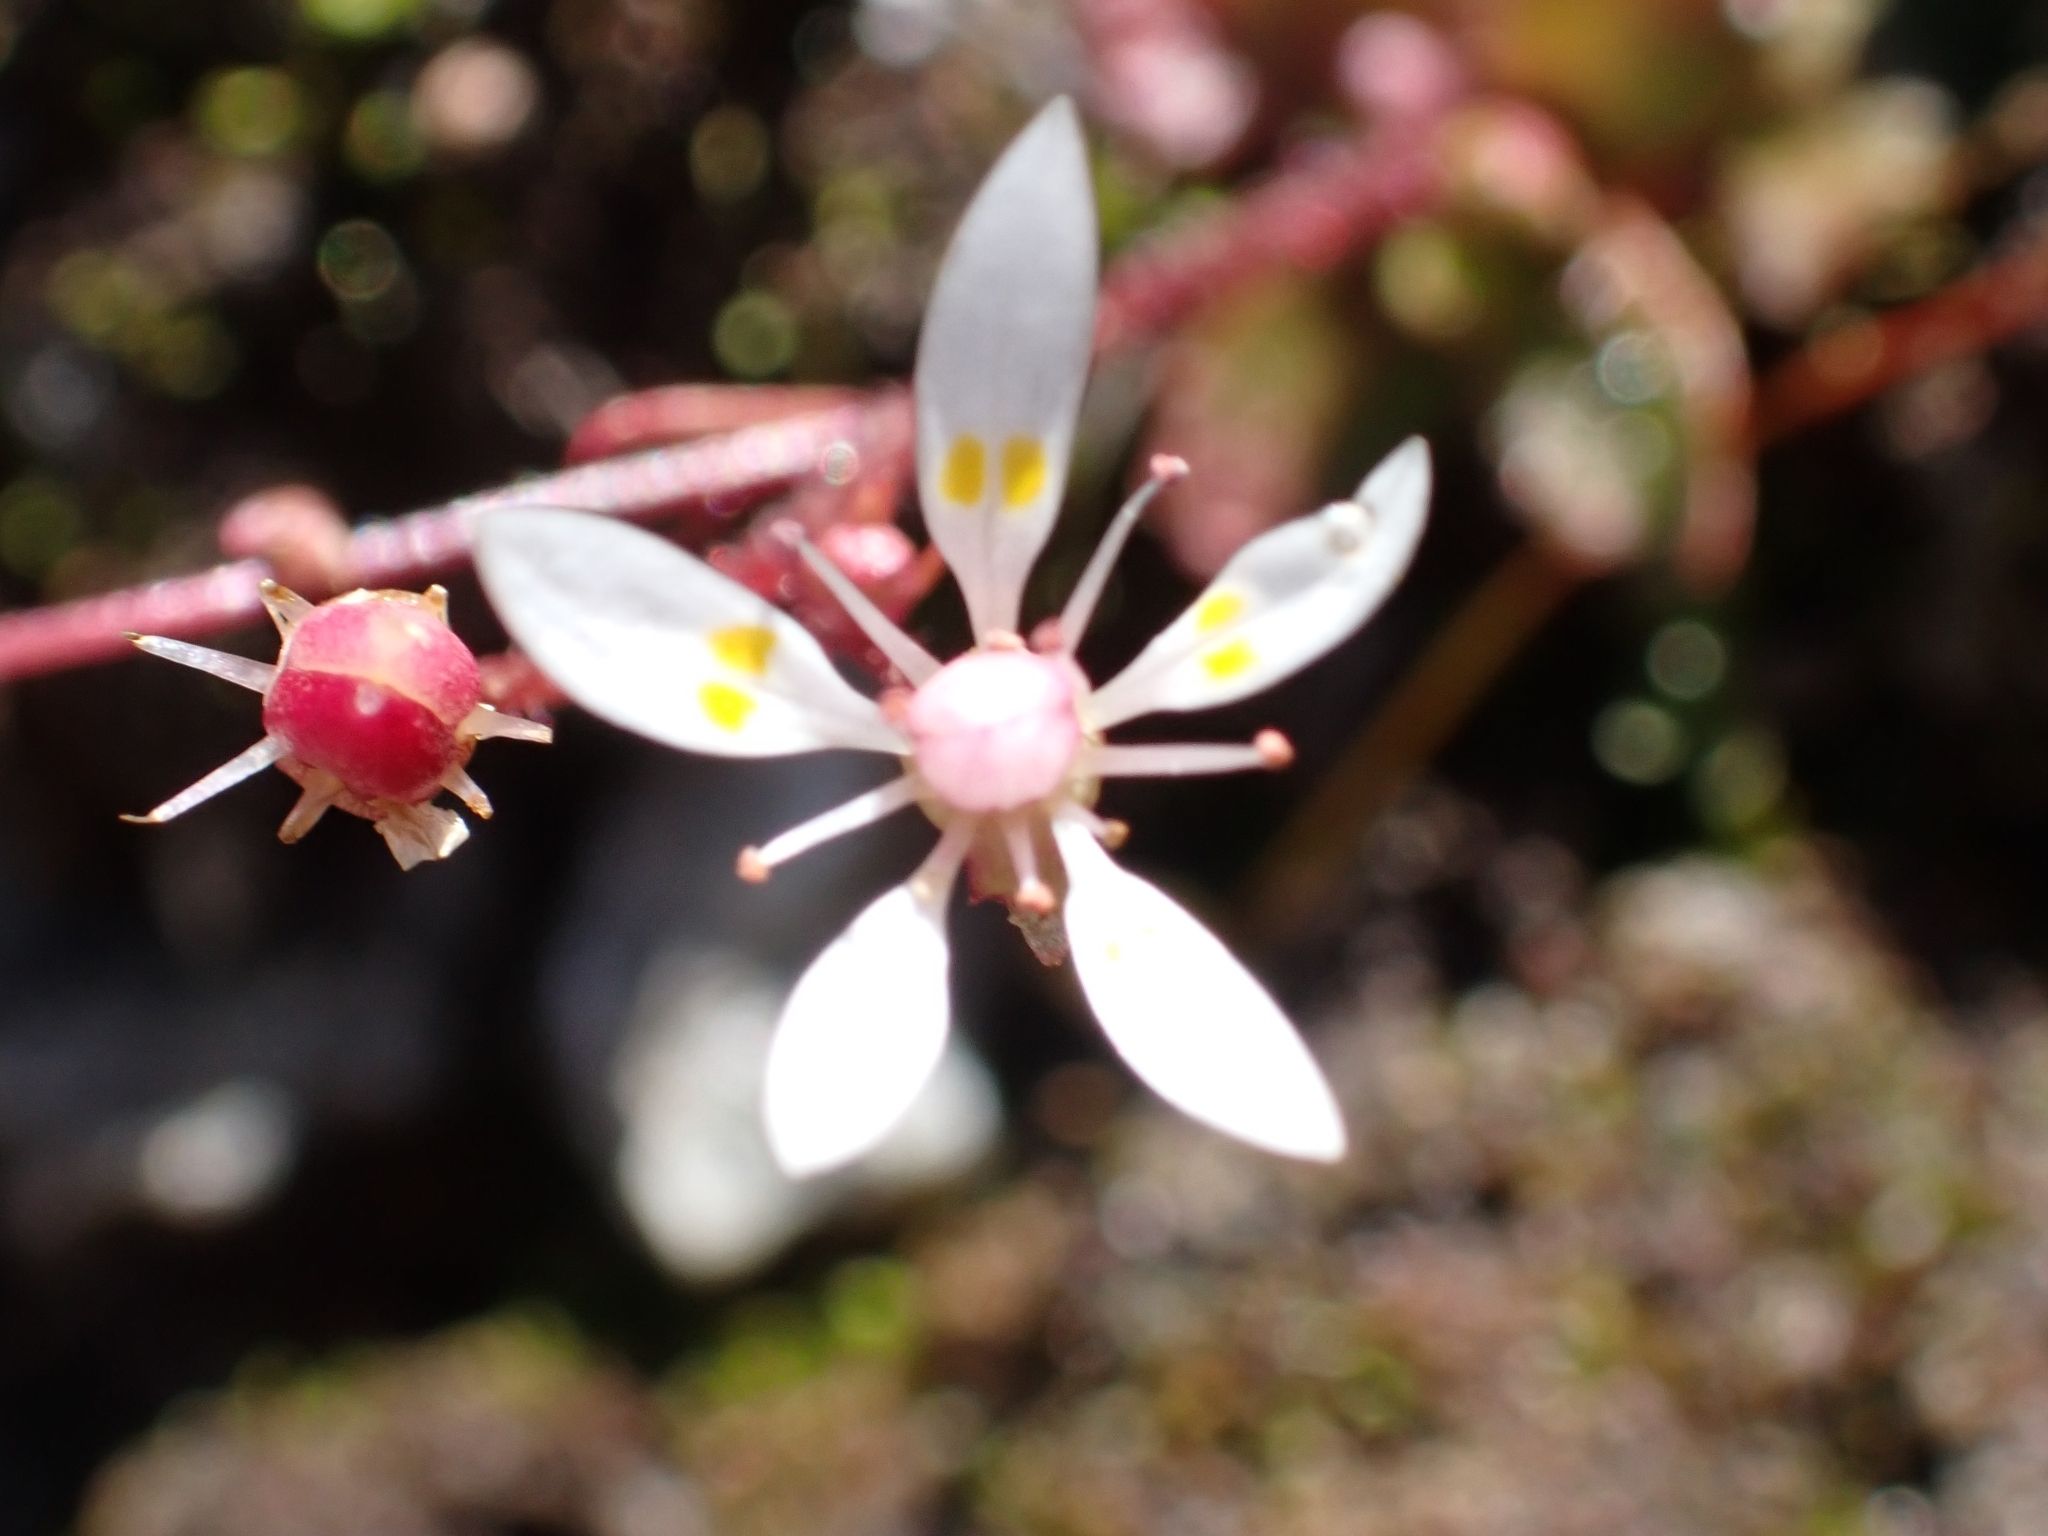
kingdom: Plantae
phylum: Tracheophyta
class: Magnoliopsida
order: Saxifragales
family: Saxifragaceae
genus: Micranthes
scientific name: Micranthes stellaris
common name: Starry saxifrage
